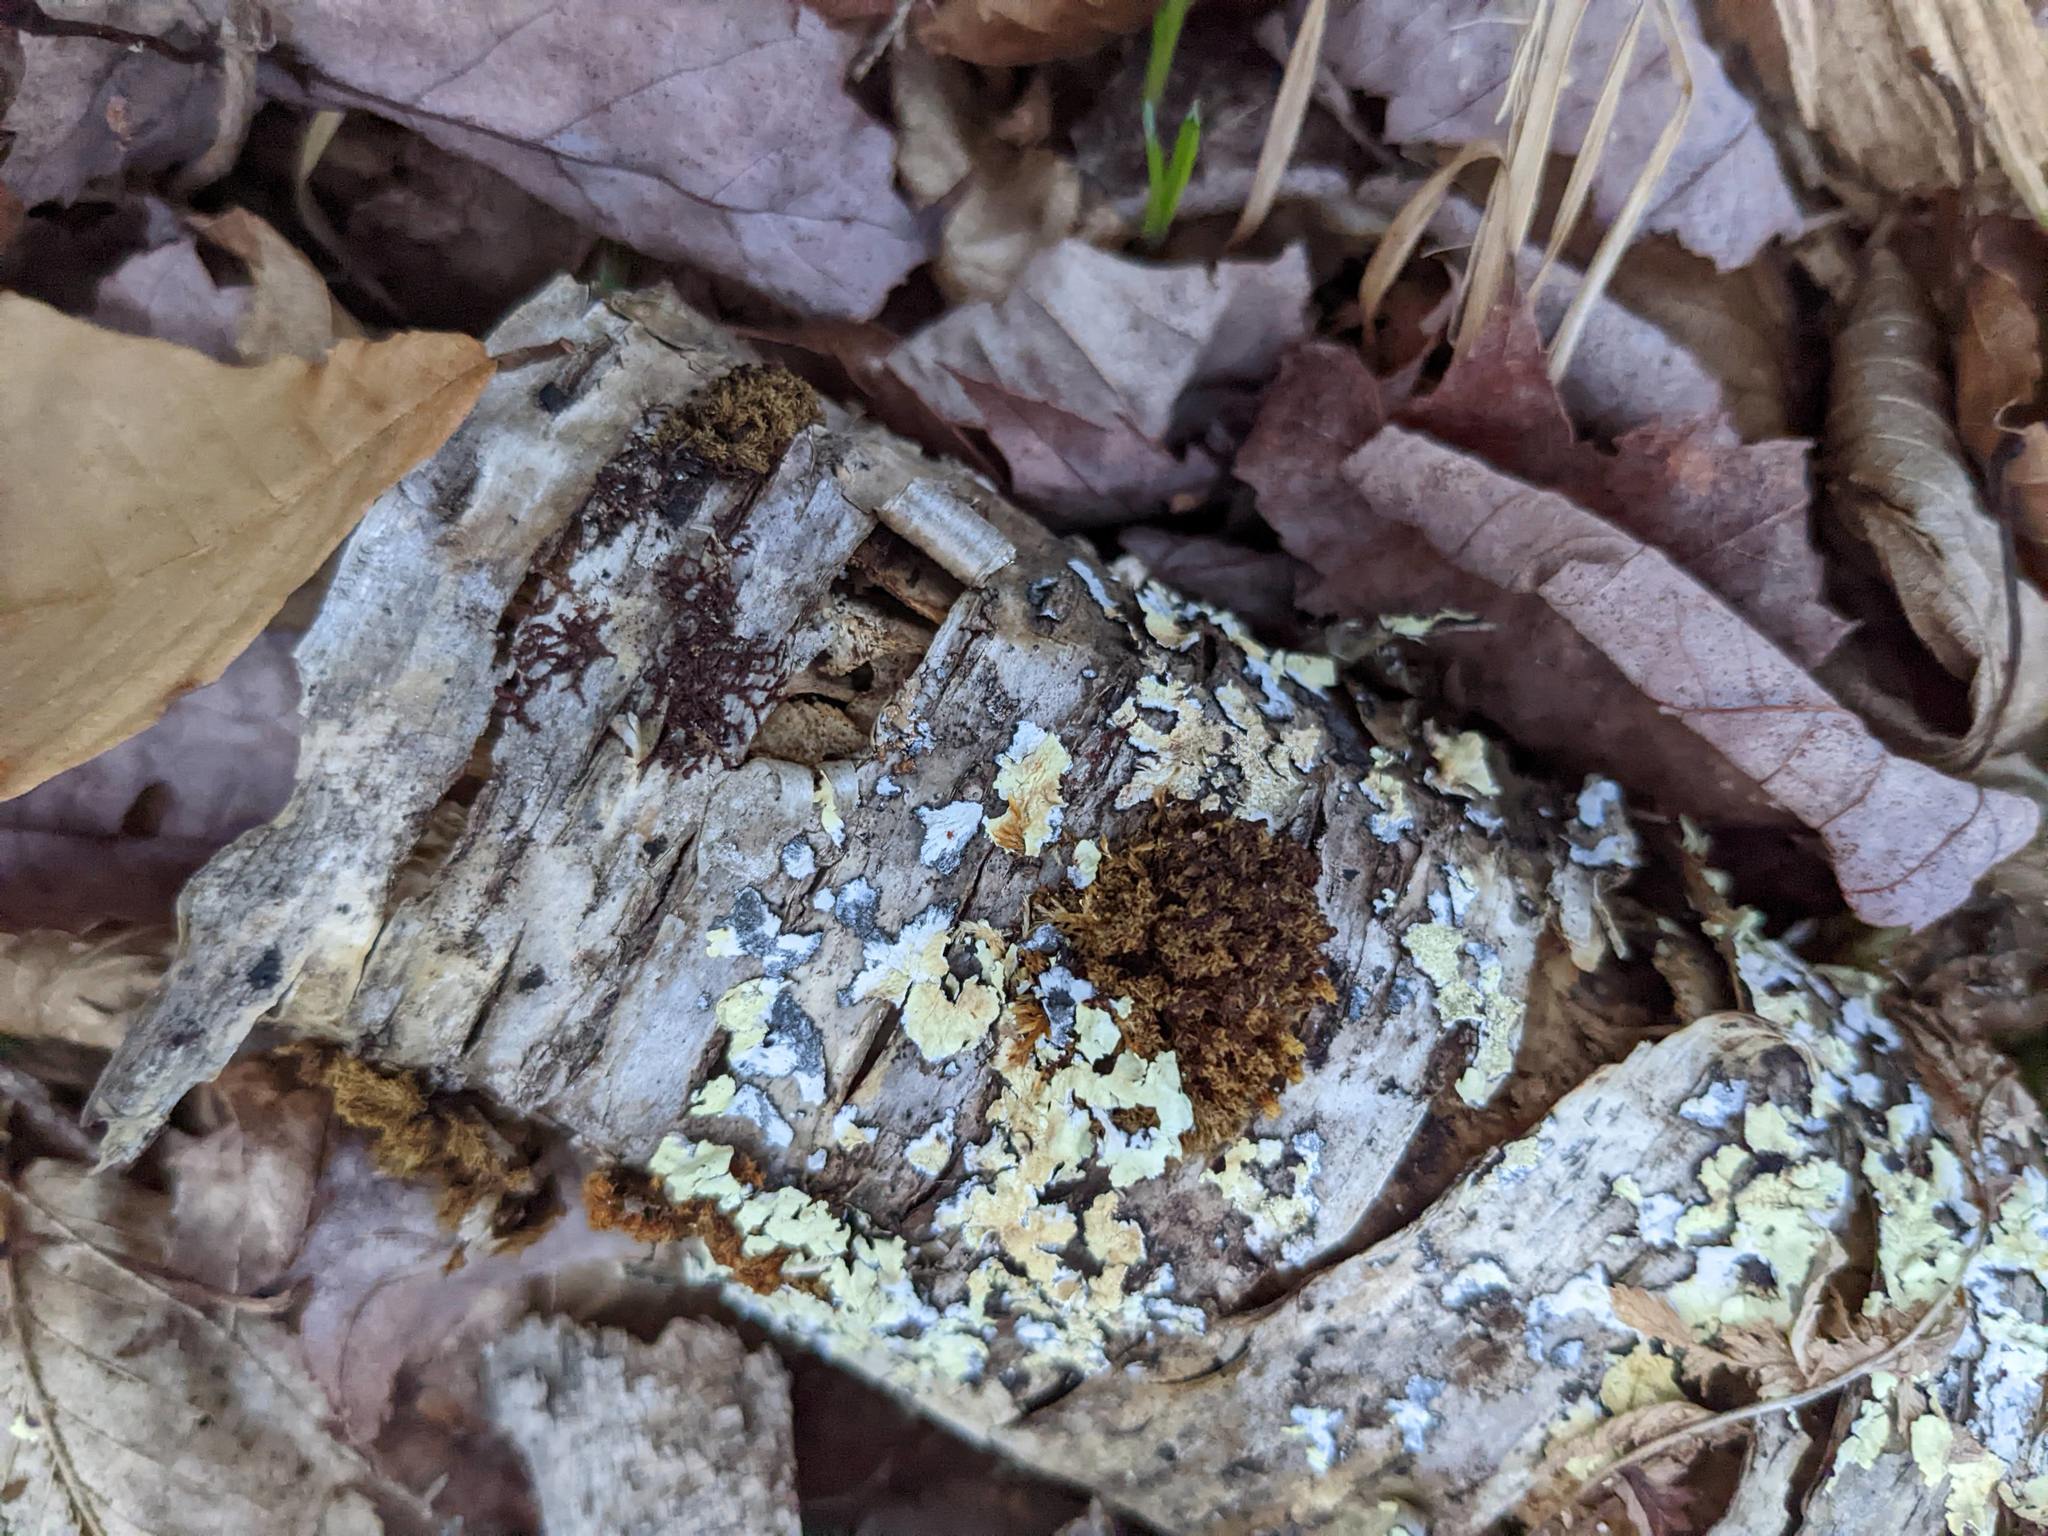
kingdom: Plantae
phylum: Bryophyta
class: Bryopsida
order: Orthotrichales
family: Orthotrichaceae
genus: Ulota
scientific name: Ulota crispa
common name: Crisped pincushion moss
